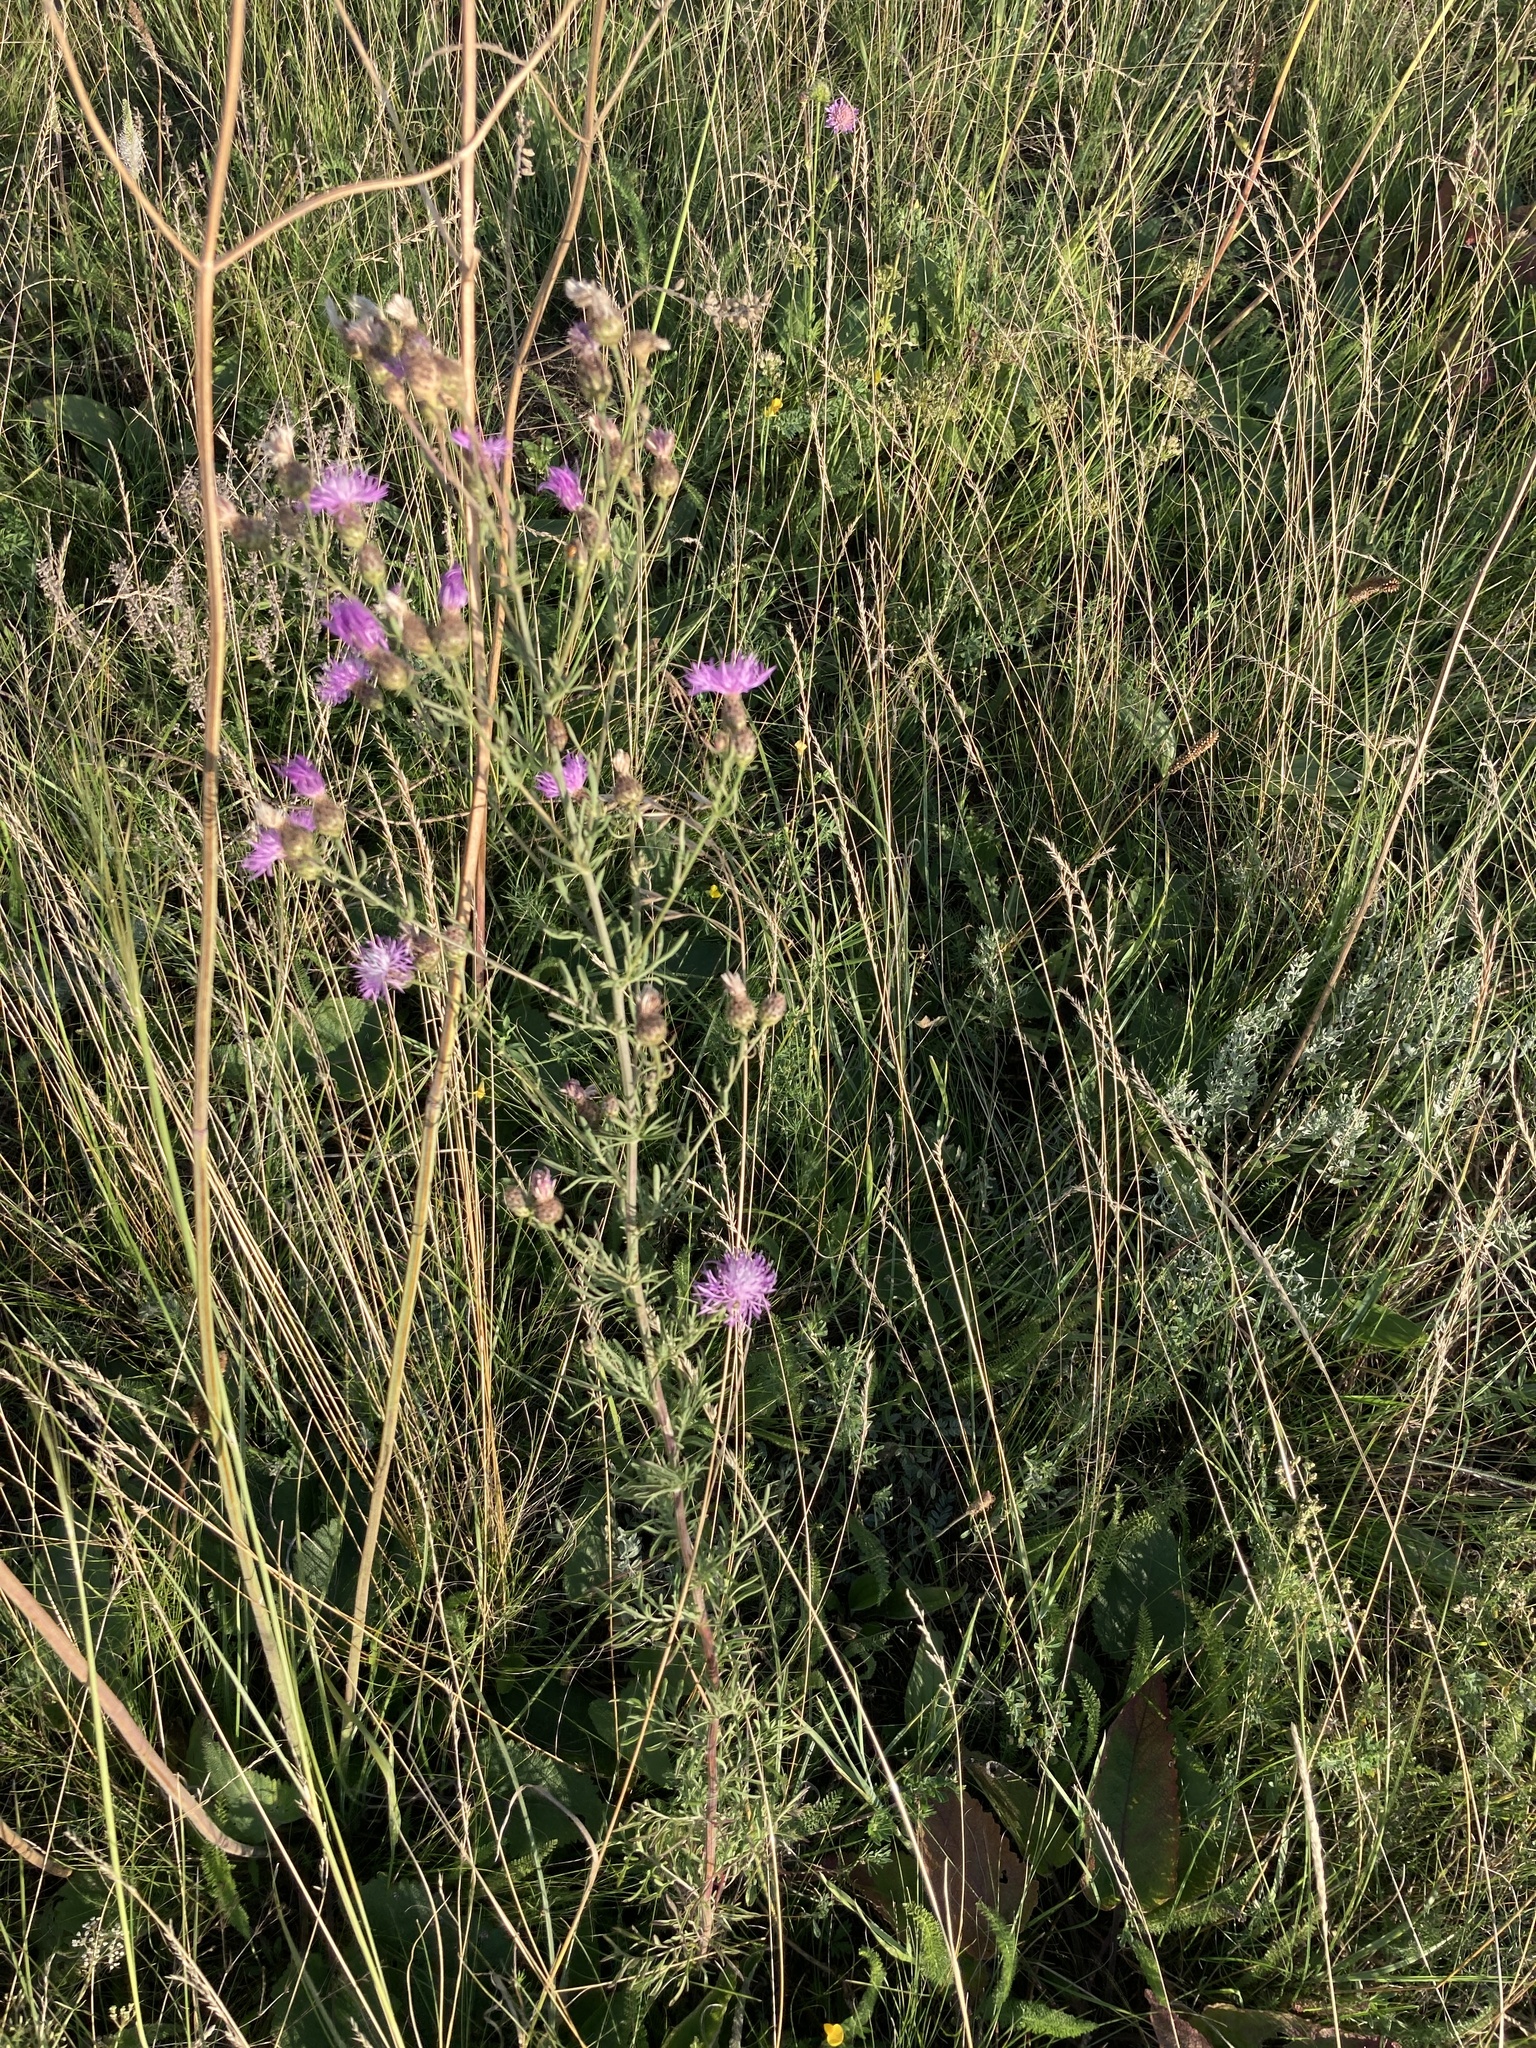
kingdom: Plantae
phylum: Tracheophyta
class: Magnoliopsida
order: Asterales
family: Asteraceae
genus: Centaurea
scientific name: Centaurea stoebe
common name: Spotted knapweed
